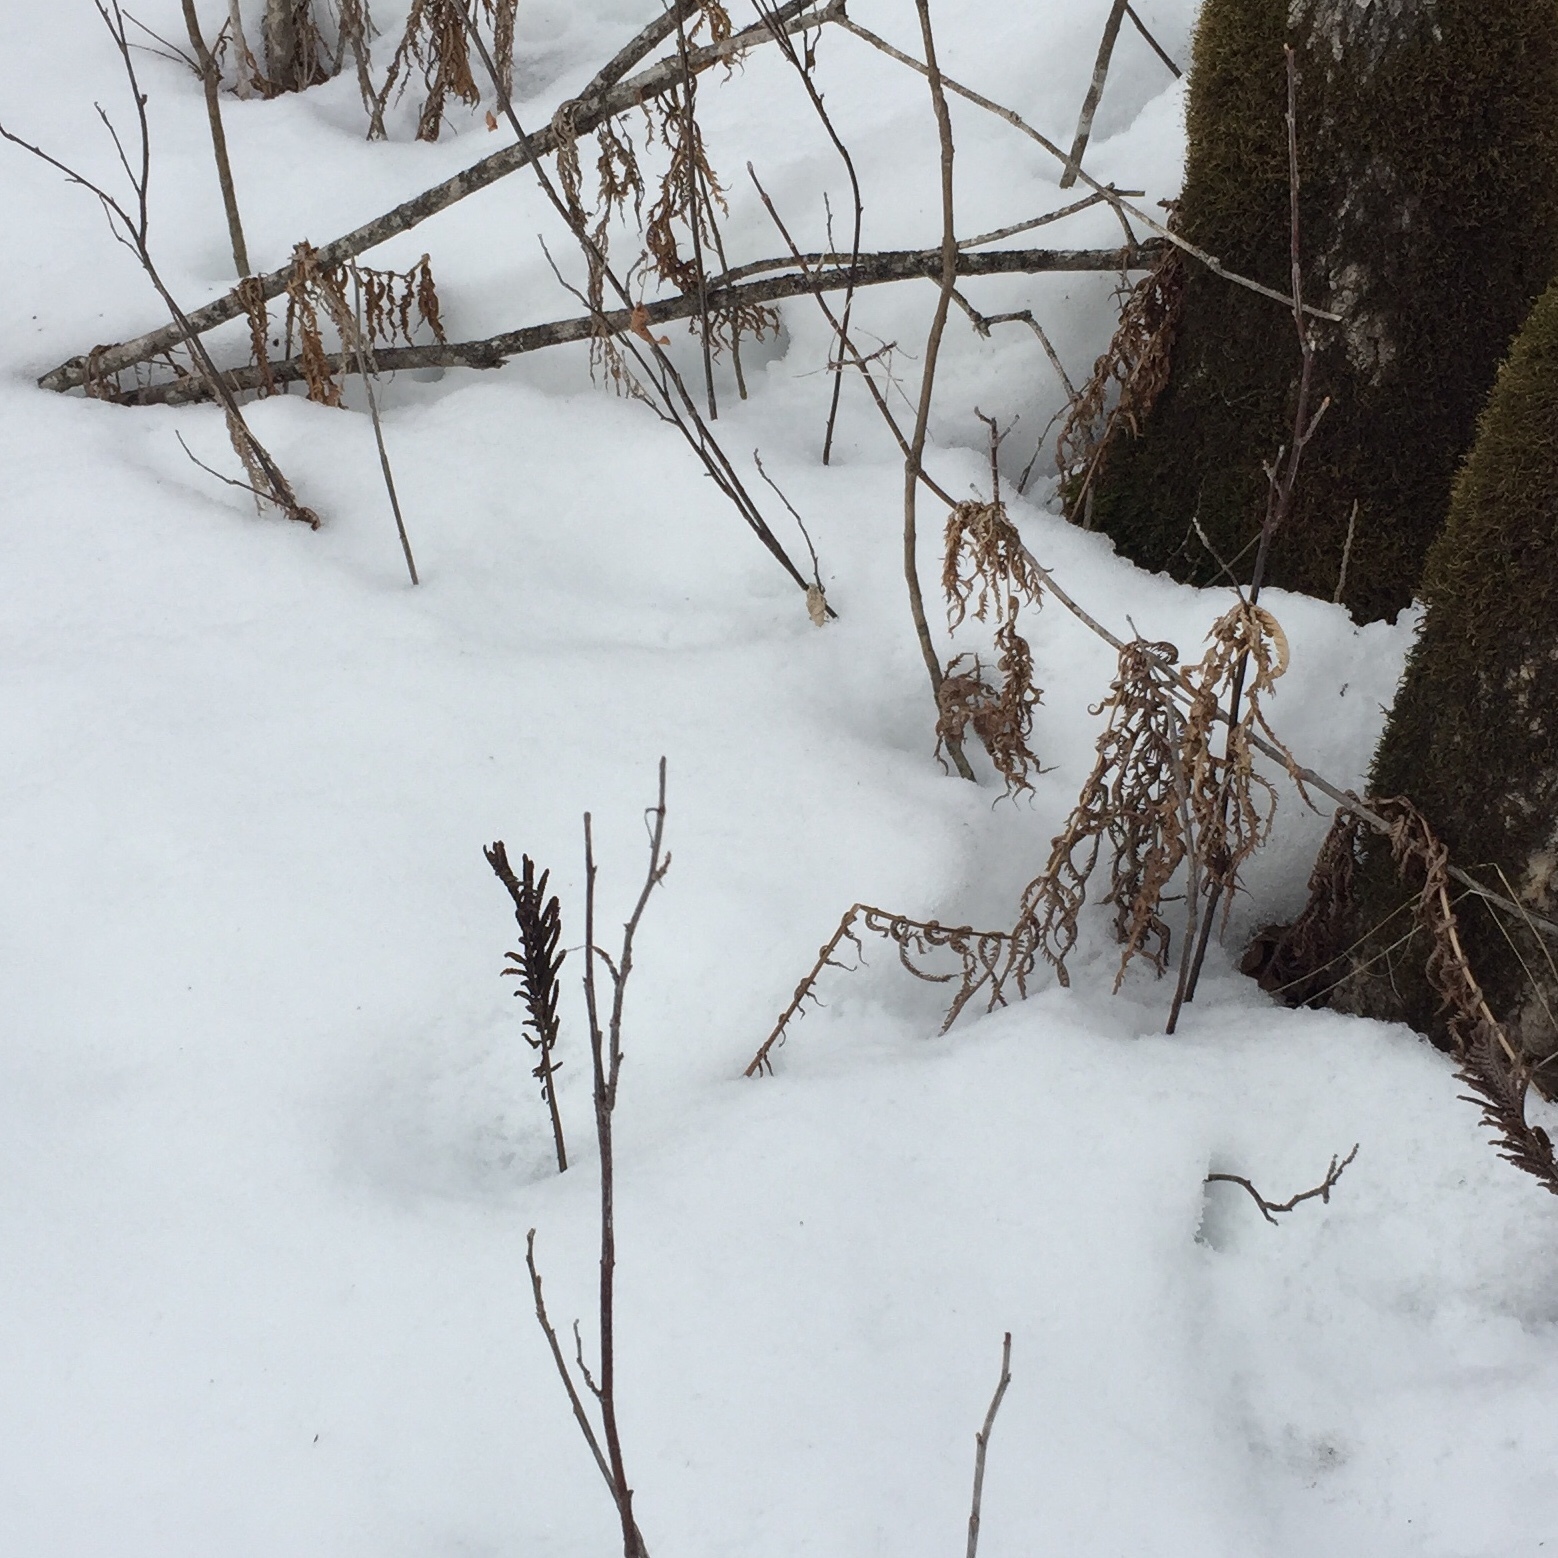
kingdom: Plantae
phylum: Tracheophyta
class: Polypodiopsida
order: Polypodiales
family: Onocleaceae
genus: Matteuccia
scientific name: Matteuccia struthiopteris
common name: Ostrich fern
